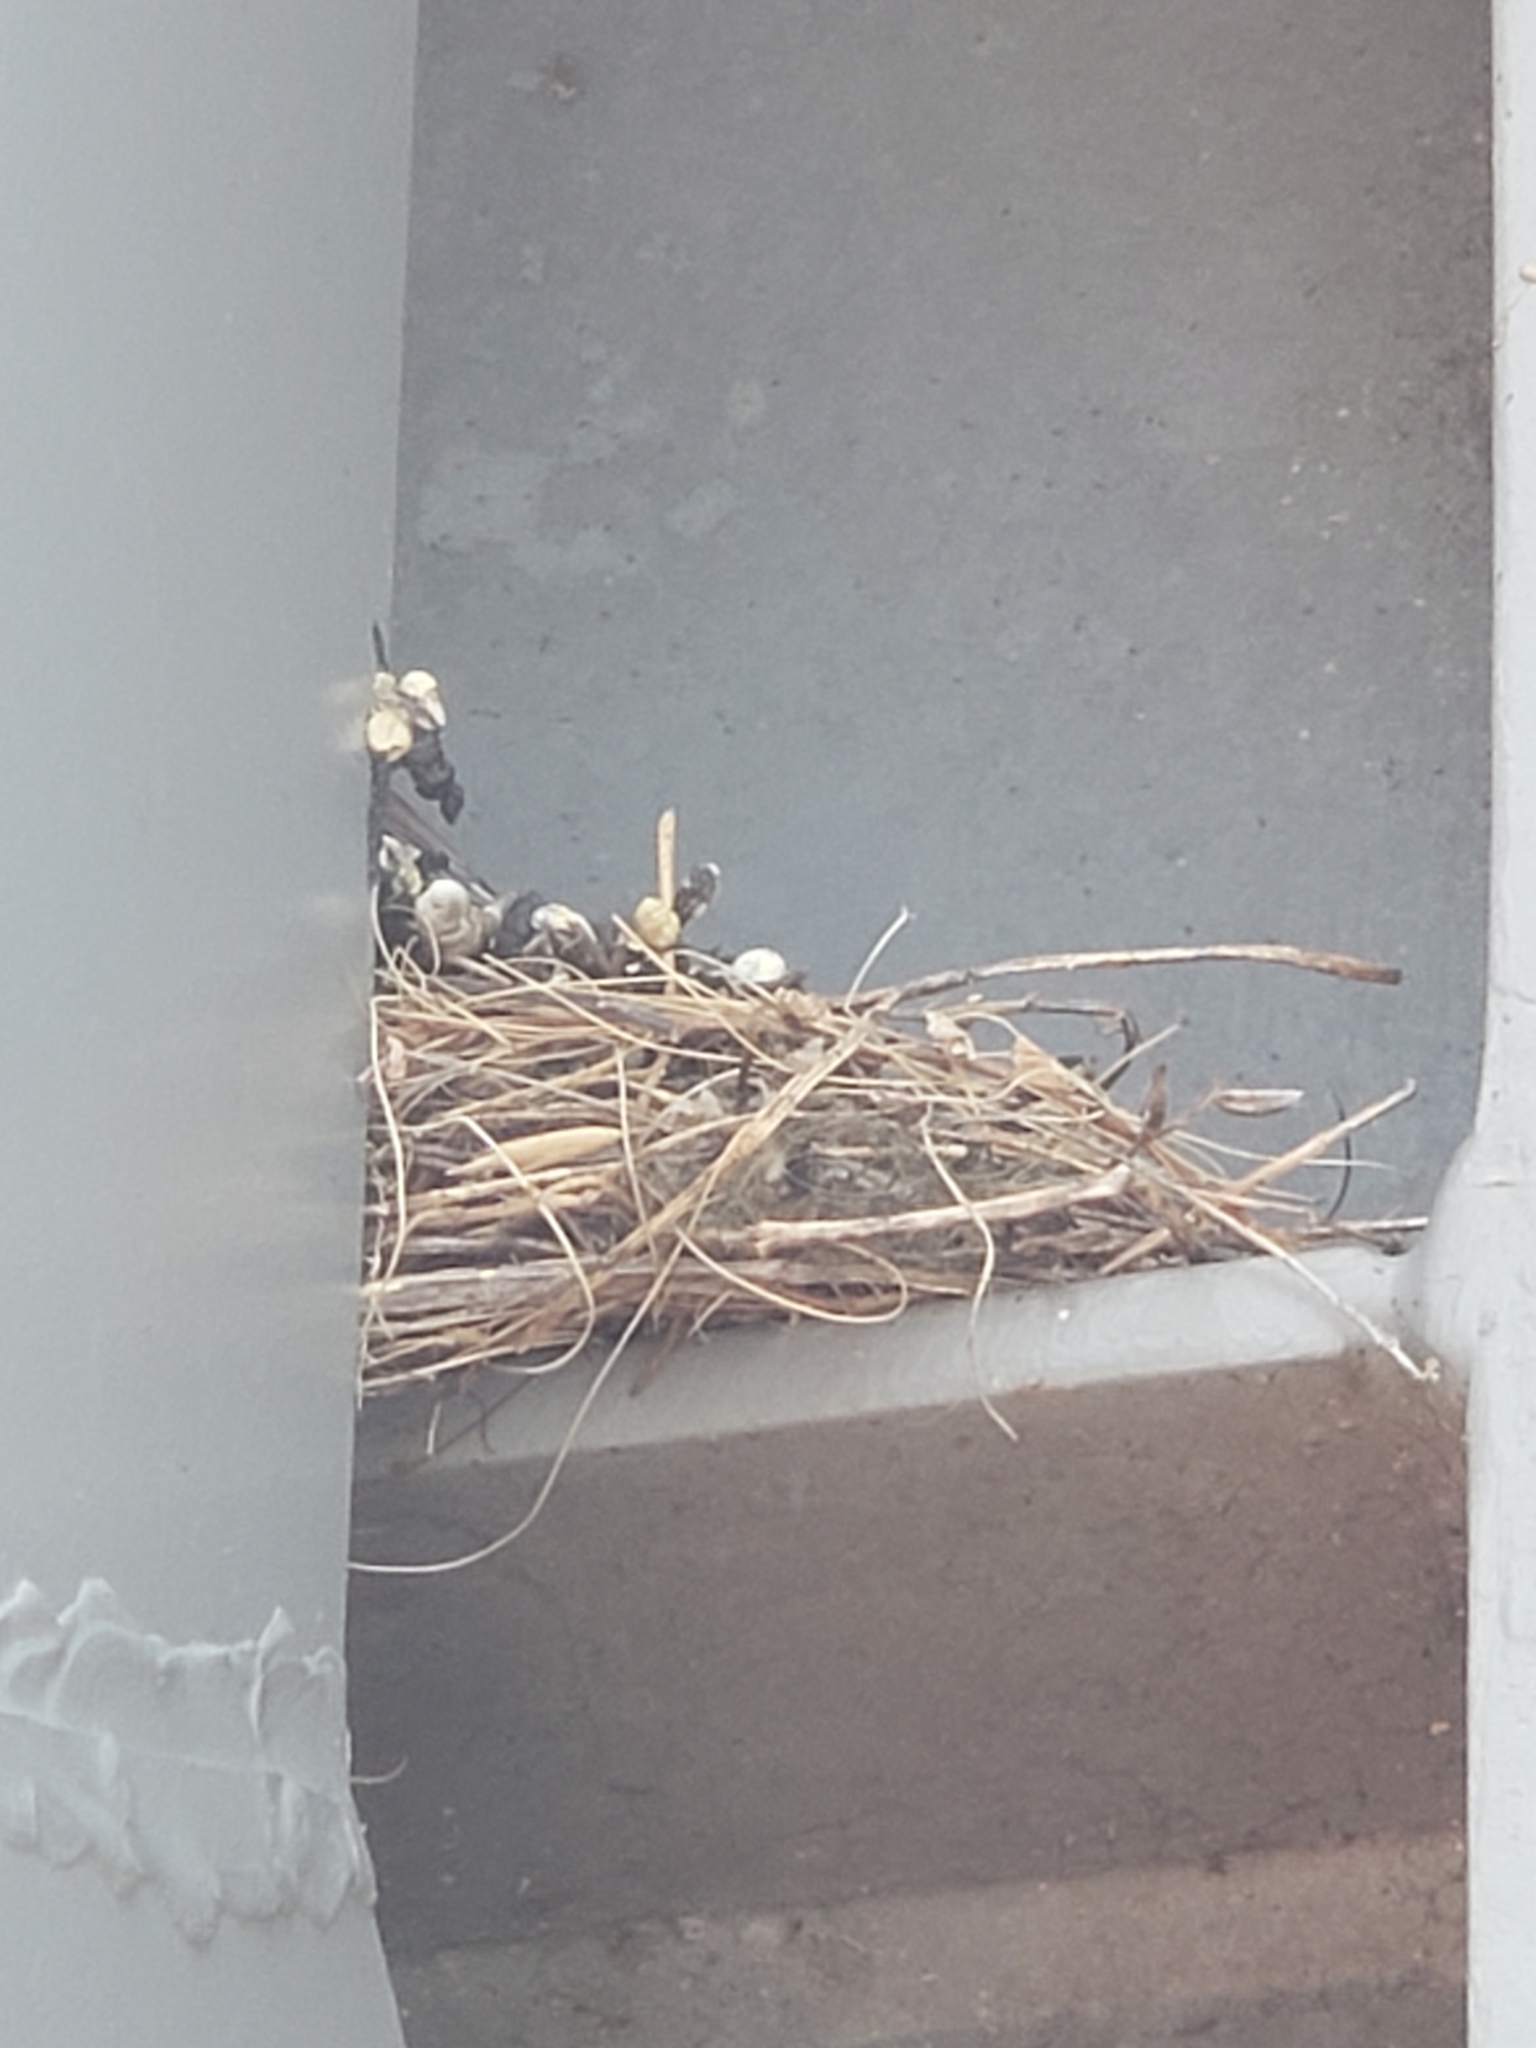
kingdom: Animalia
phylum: Chordata
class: Aves
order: Passeriformes
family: Fringillidae
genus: Haemorhous
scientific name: Haemorhous mexicanus
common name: House finch
